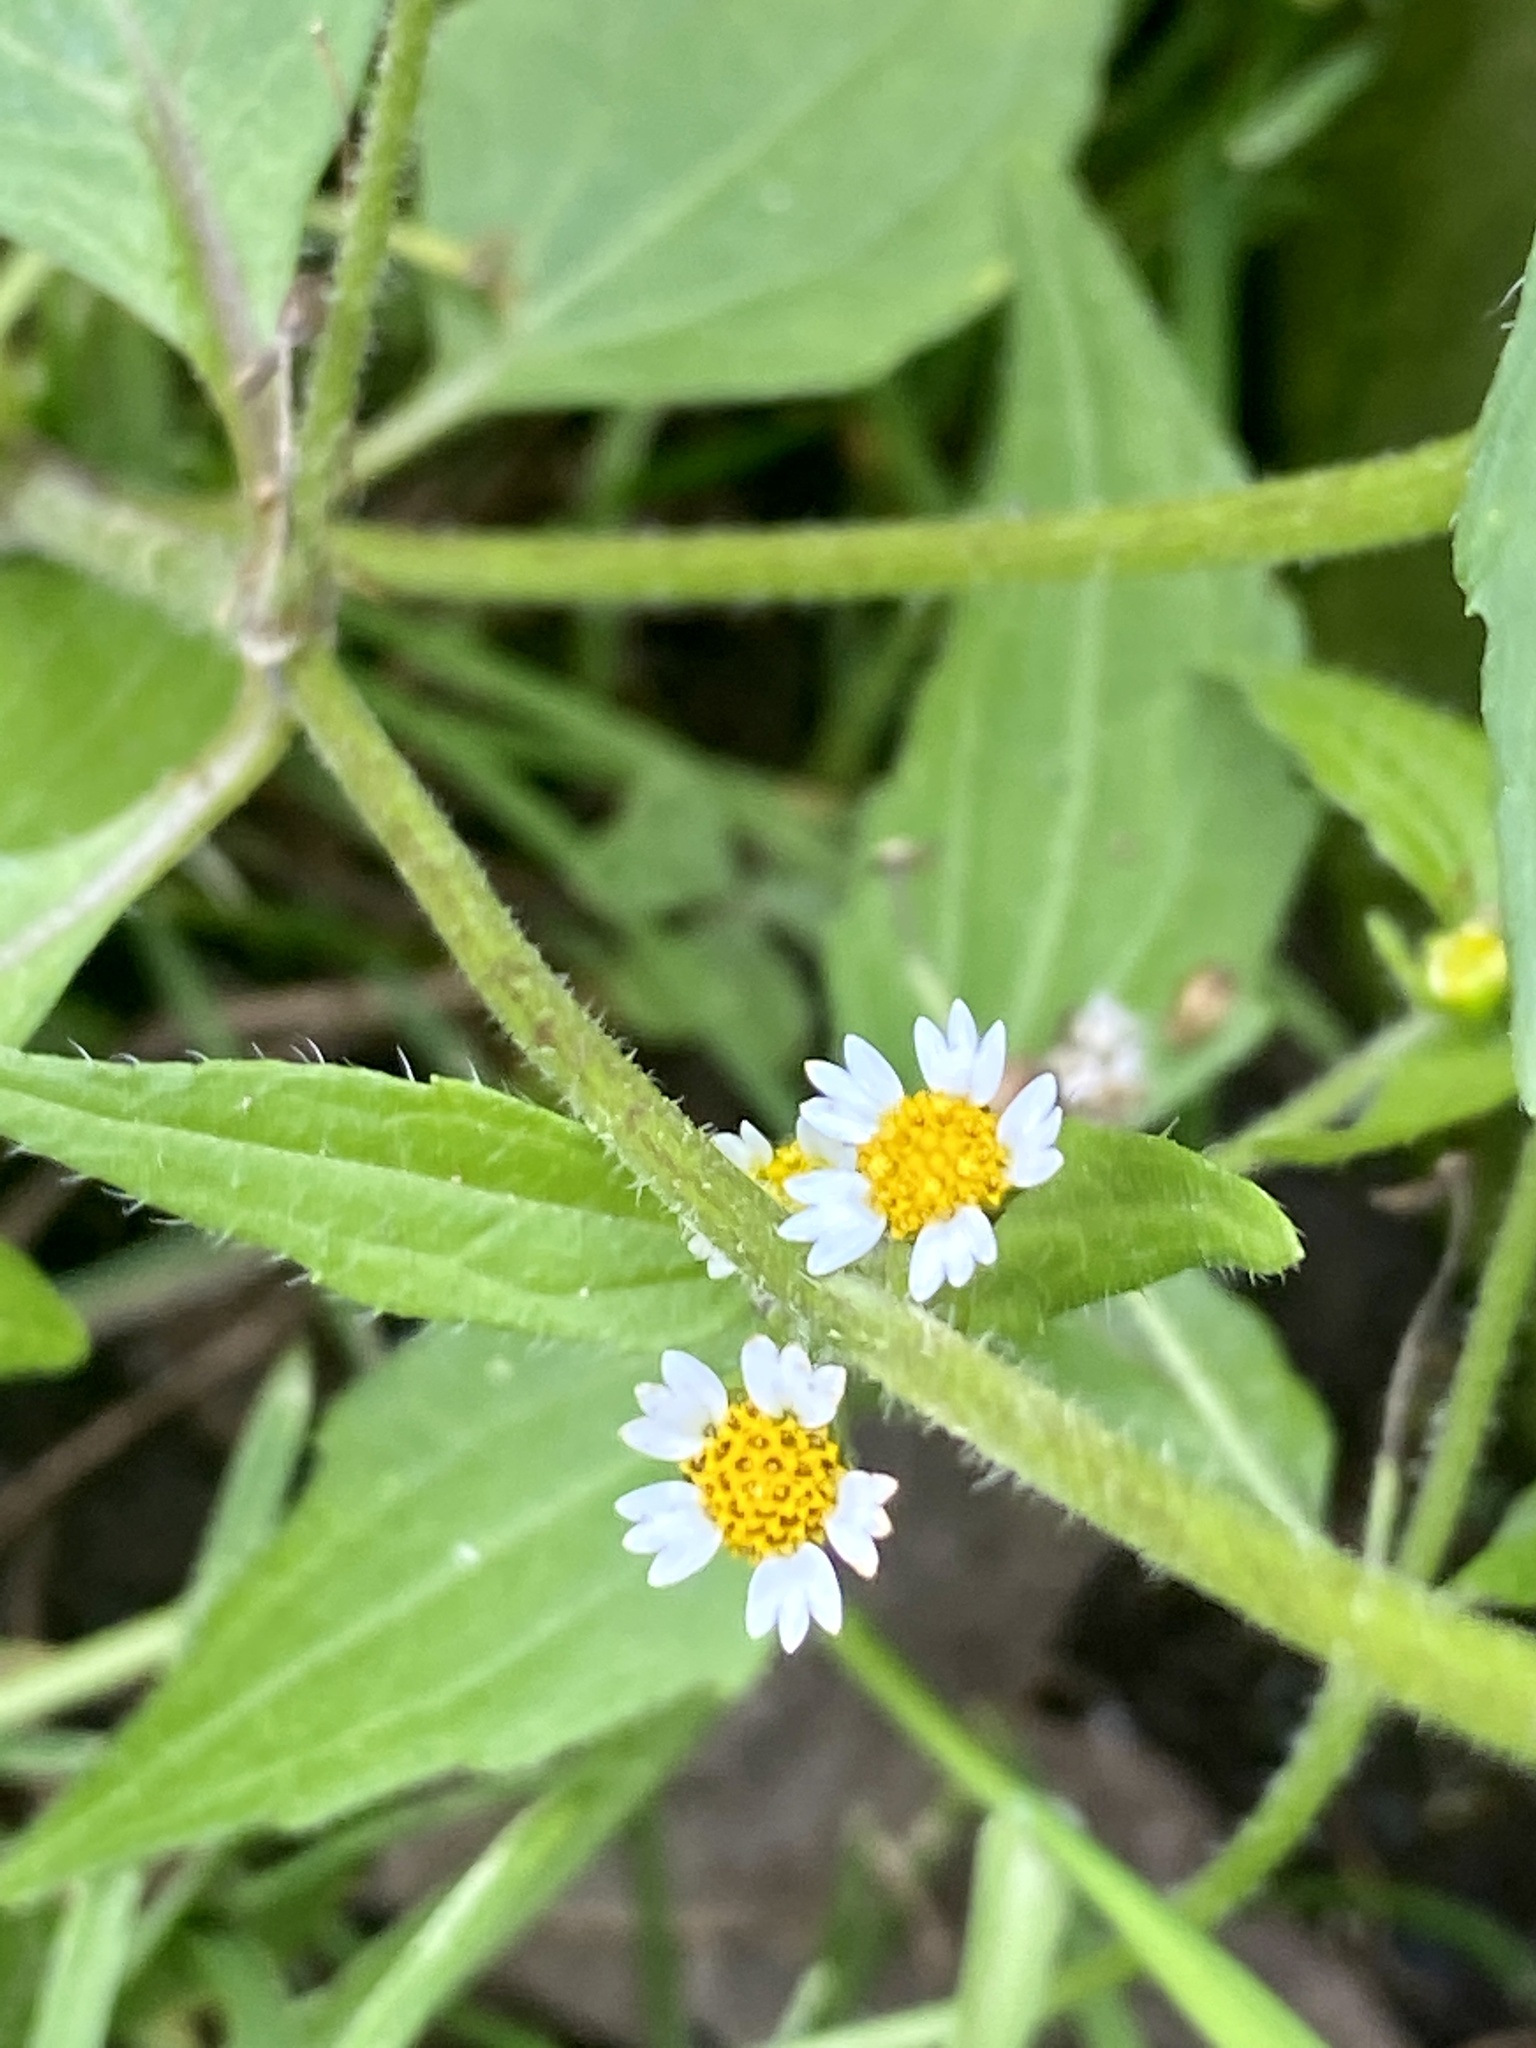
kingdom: Plantae
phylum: Tracheophyta
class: Magnoliopsida
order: Asterales
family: Asteraceae
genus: Galinsoga
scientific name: Galinsoga quadriradiata
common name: Shaggy soldier
